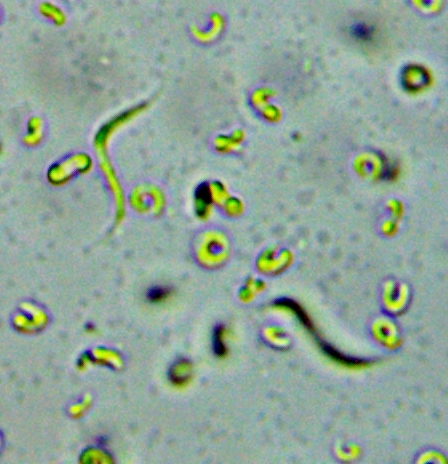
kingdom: Plantae
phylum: Chlorophyta
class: Chlorophyceae
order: Sphaeropleales
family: Selenastraceae
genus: Monoraphidium
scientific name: Monoraphidium contortum
